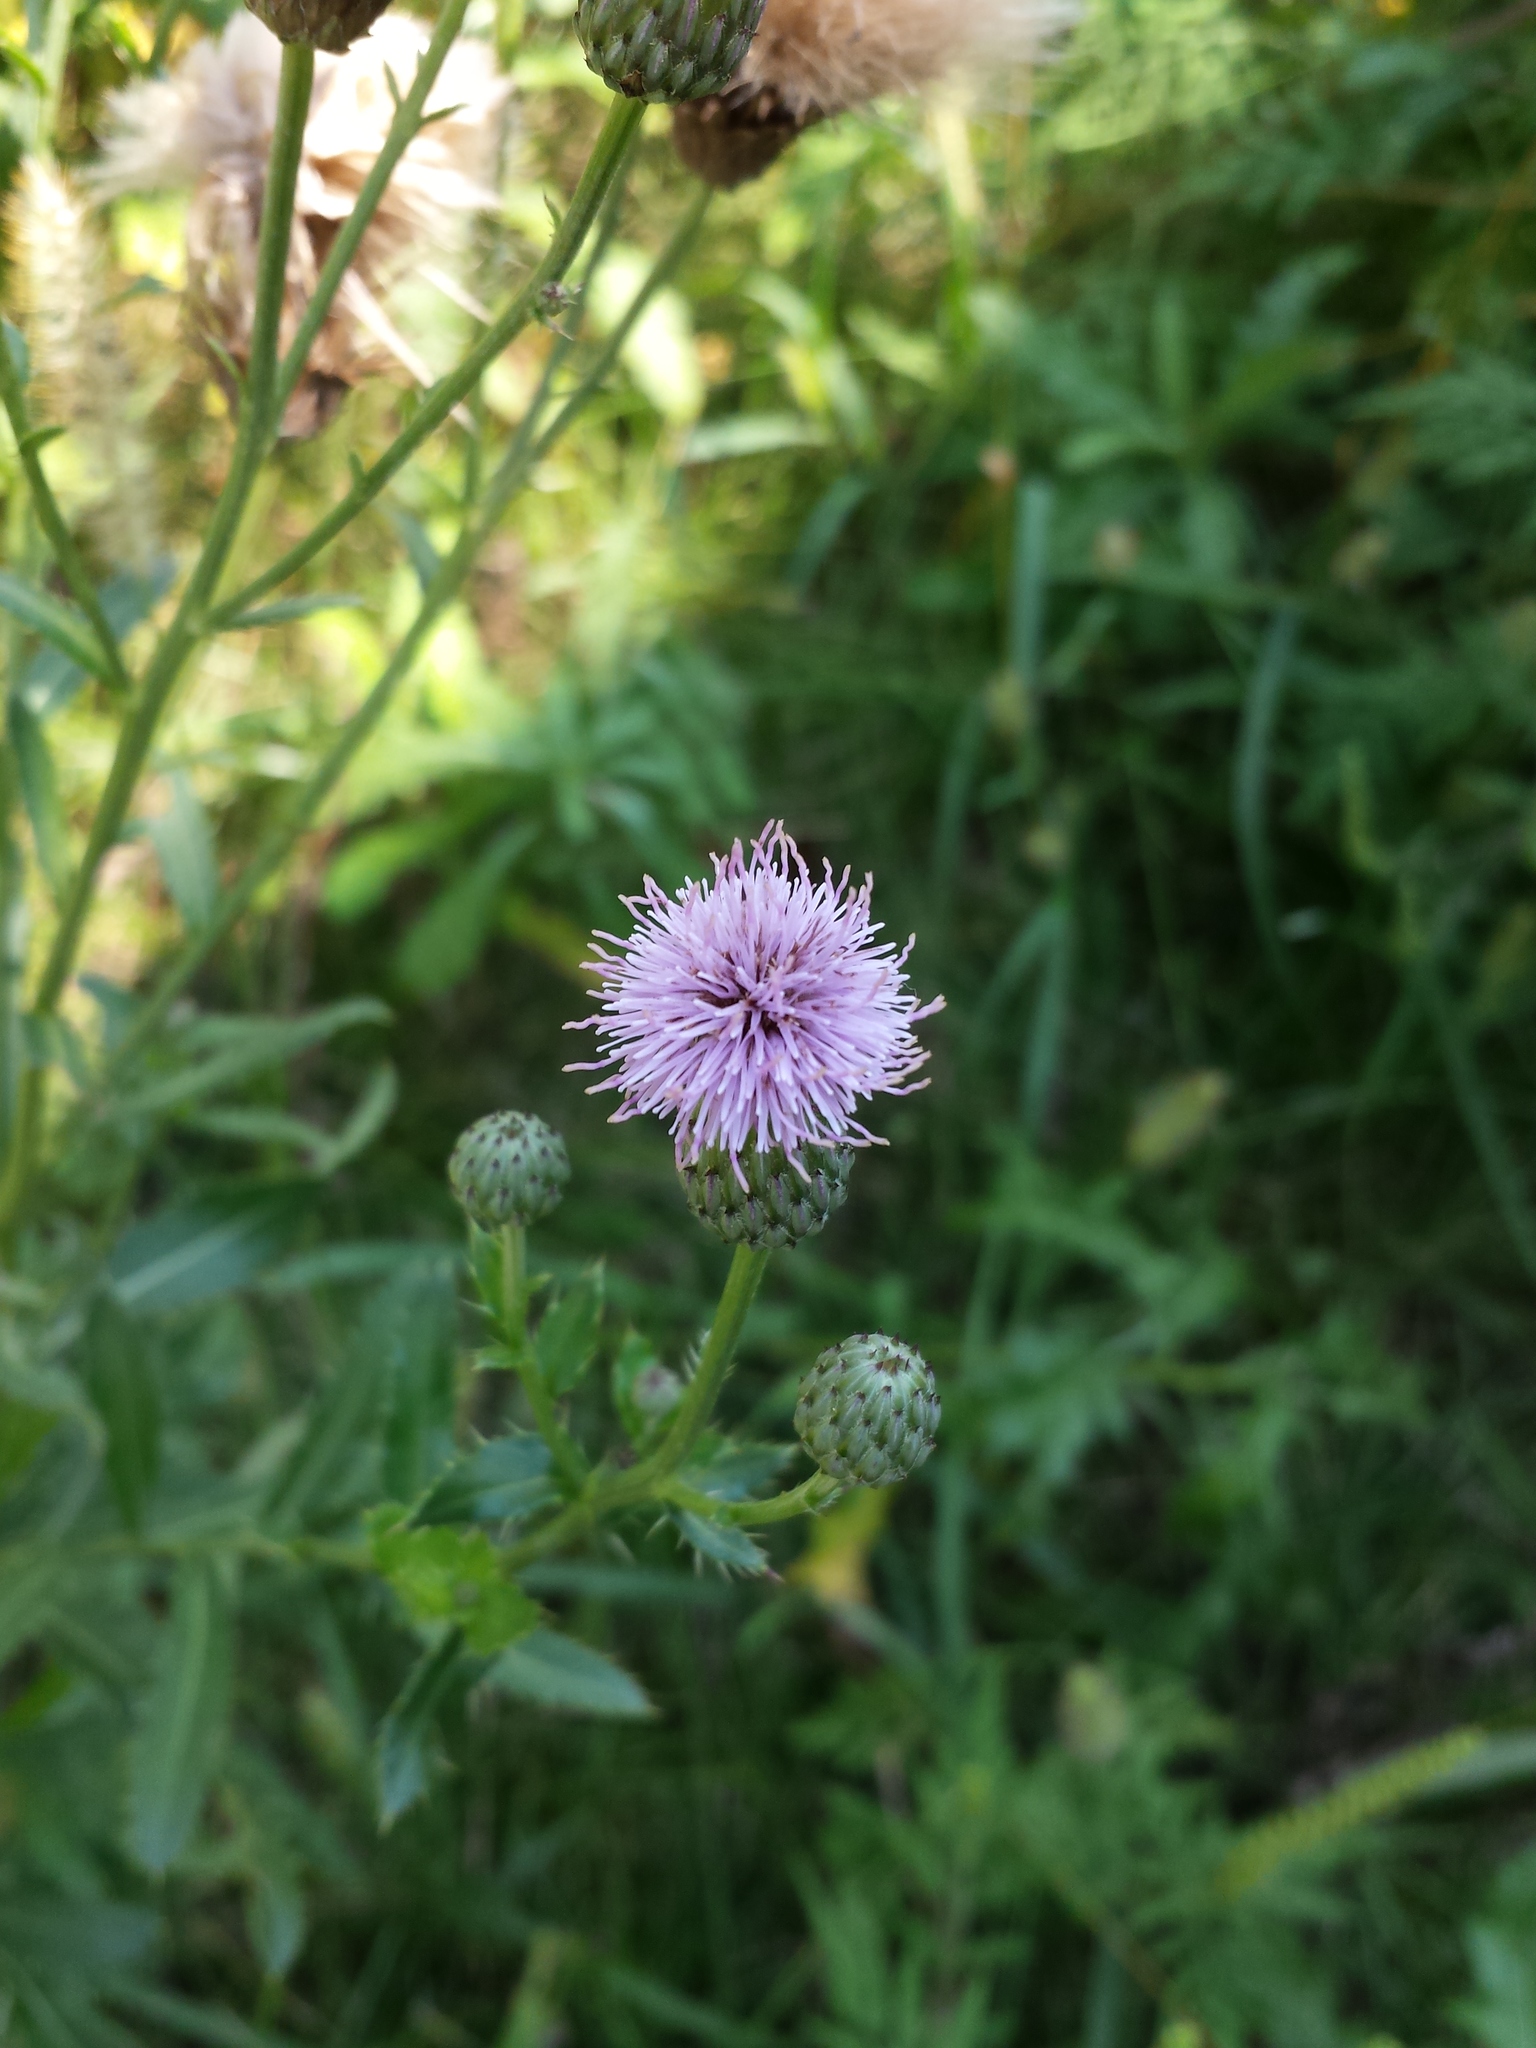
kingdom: Plantae
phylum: Tracheophyta
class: Magnoliopsida
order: Asterales
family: Asteraceae
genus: Cirsium
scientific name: Cirsium arvense
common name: Creeping thistle
